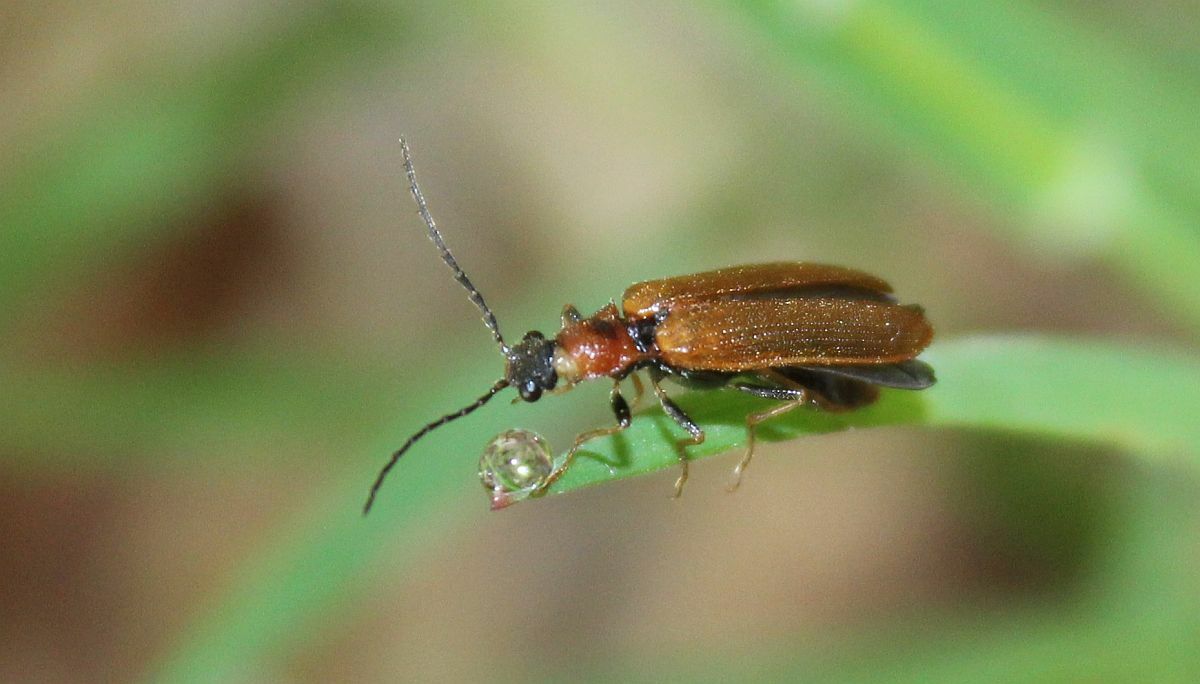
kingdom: Animalia
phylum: Arthropoda
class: Insecta
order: Coleoptera
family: Elateridae
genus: Denticollis
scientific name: Denticollis linearis
